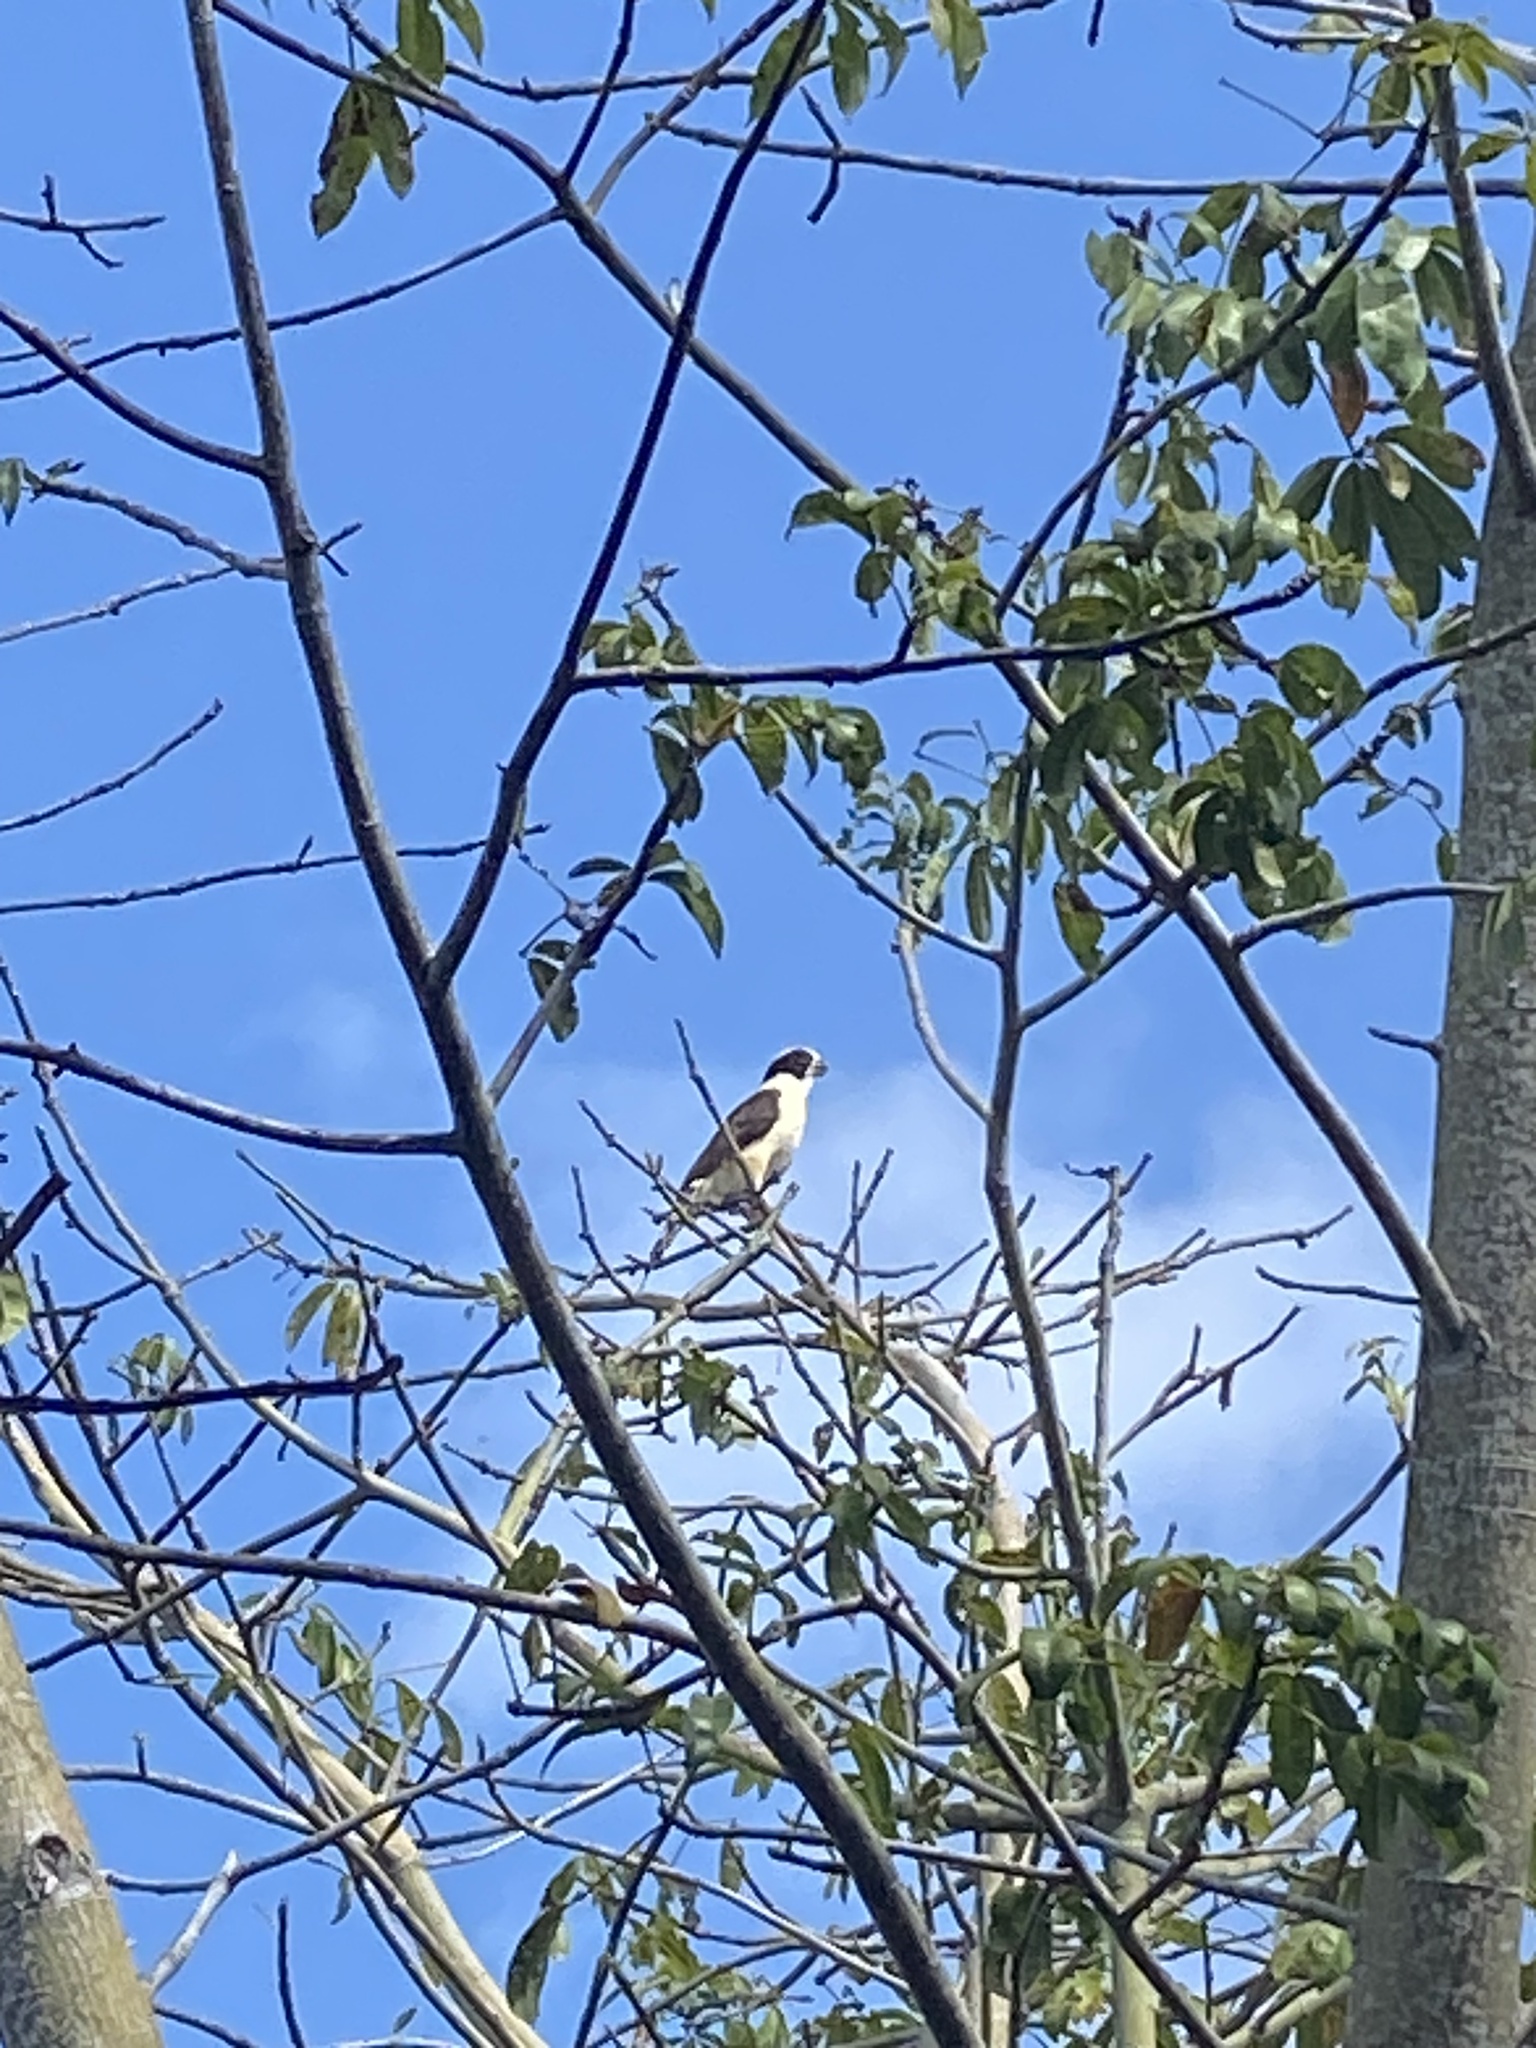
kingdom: Animalia
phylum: Chordata
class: Aves
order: Falconiformes
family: Falconidae
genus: Herpetotheres
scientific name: Herpetotheres cachinnans
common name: Laughing falcon
